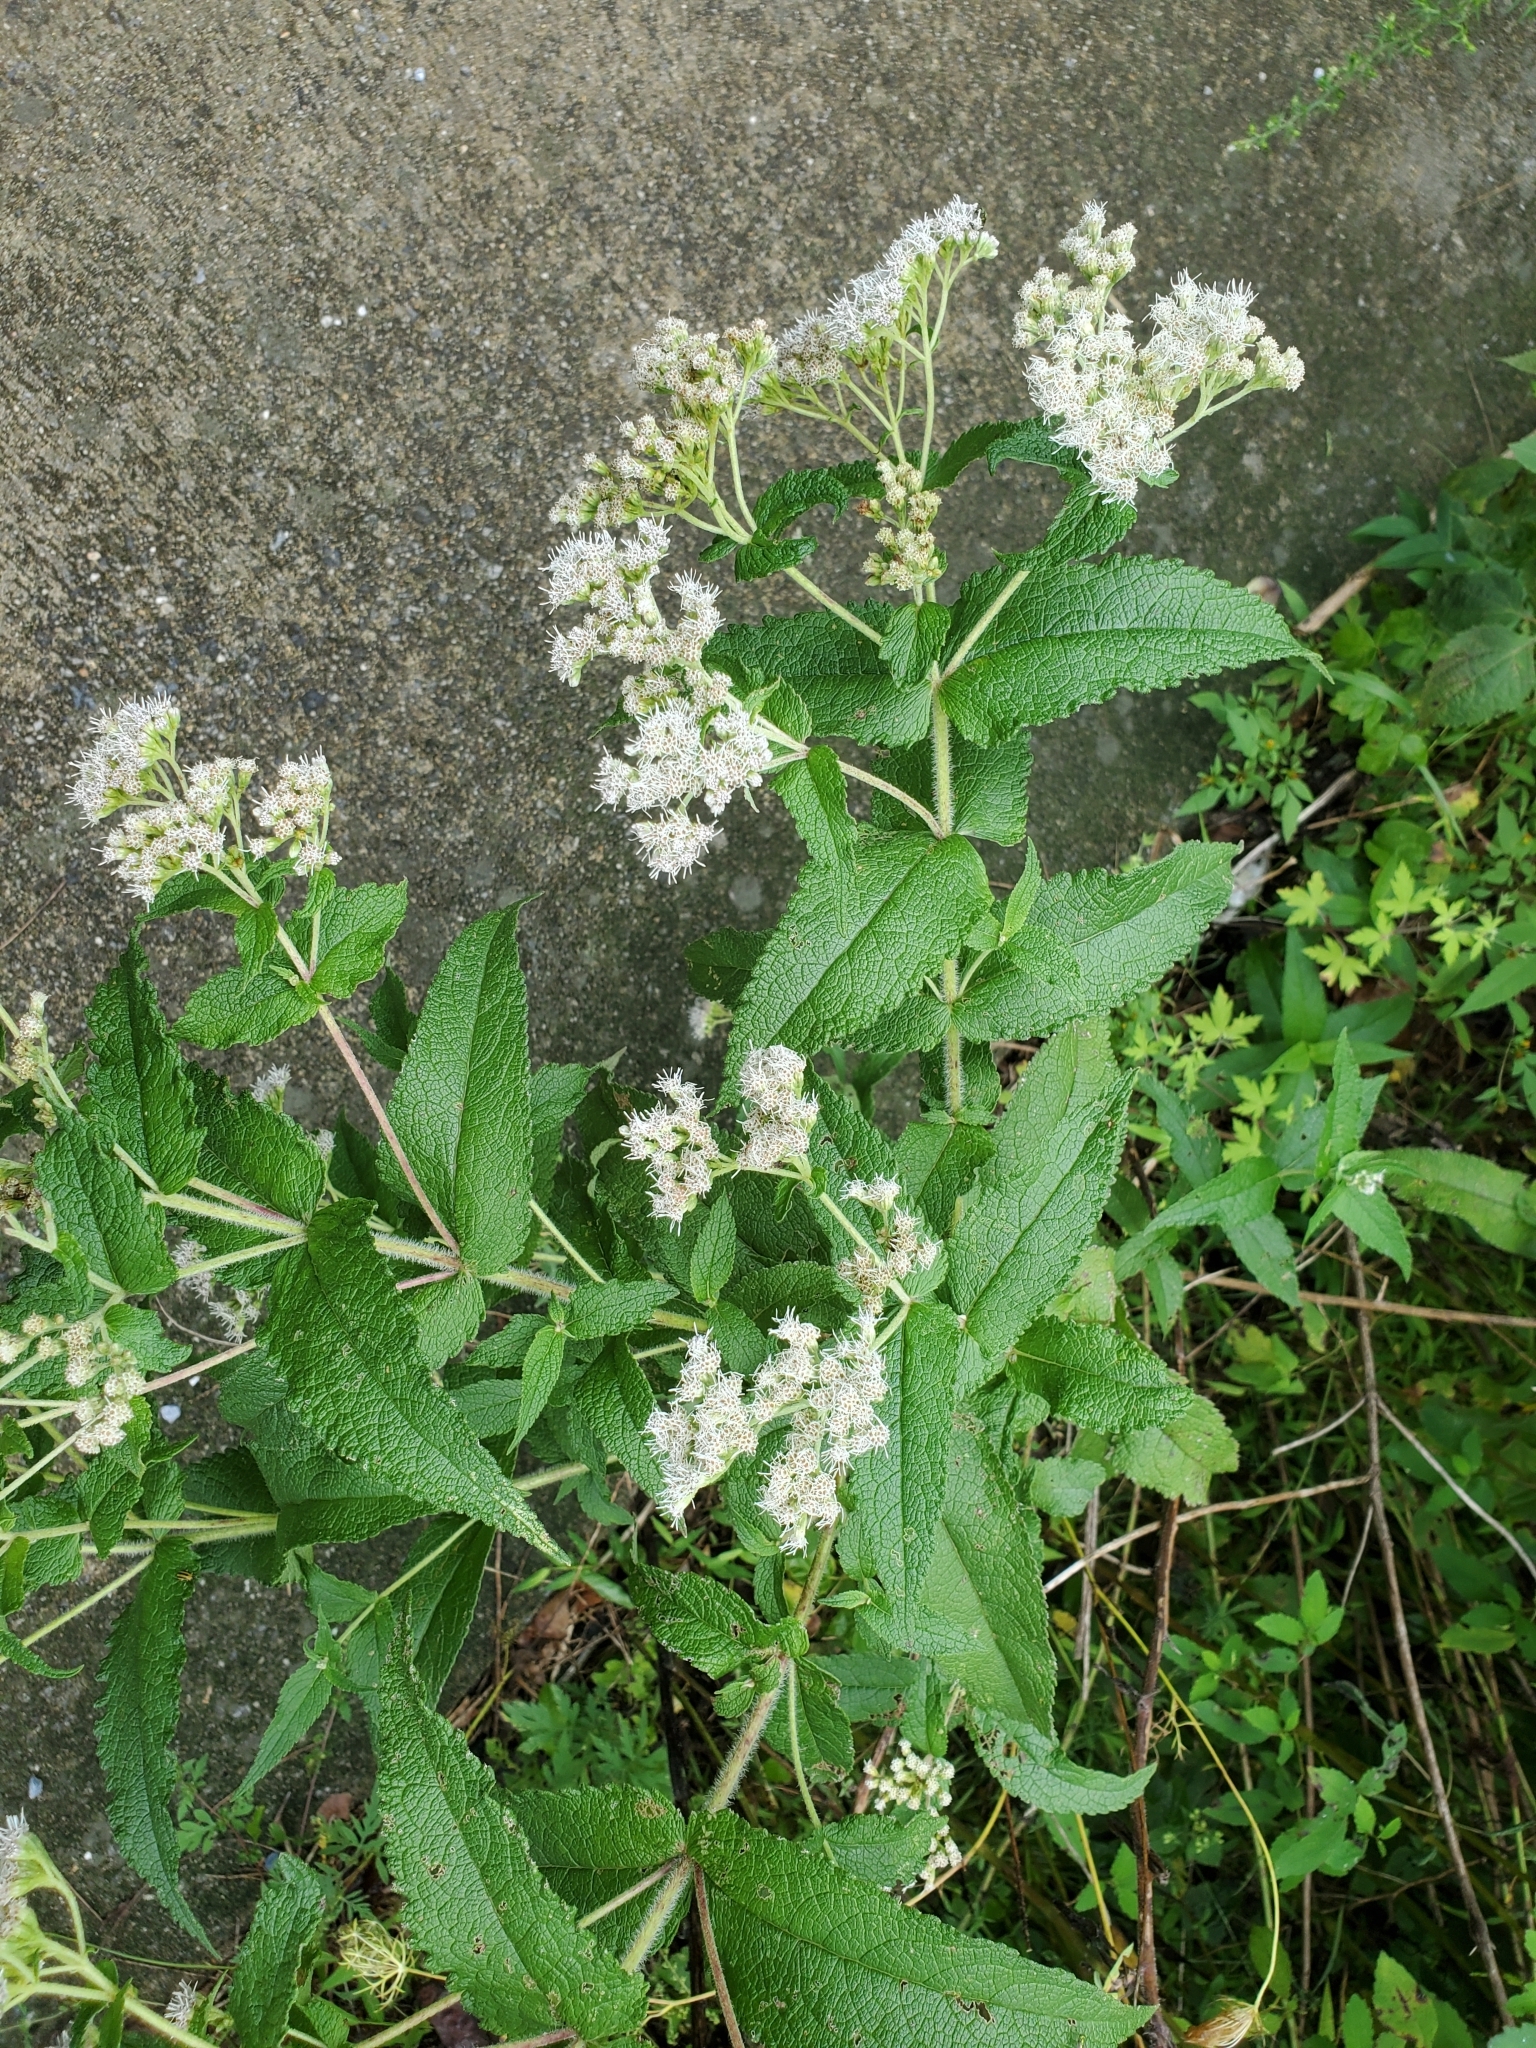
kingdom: Plantae
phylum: Tracheophyta
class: Magnoliopsida
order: Asterales
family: Asteraceae
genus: Eupatorium
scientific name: Eupatorium perfoliatum
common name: Boneset
